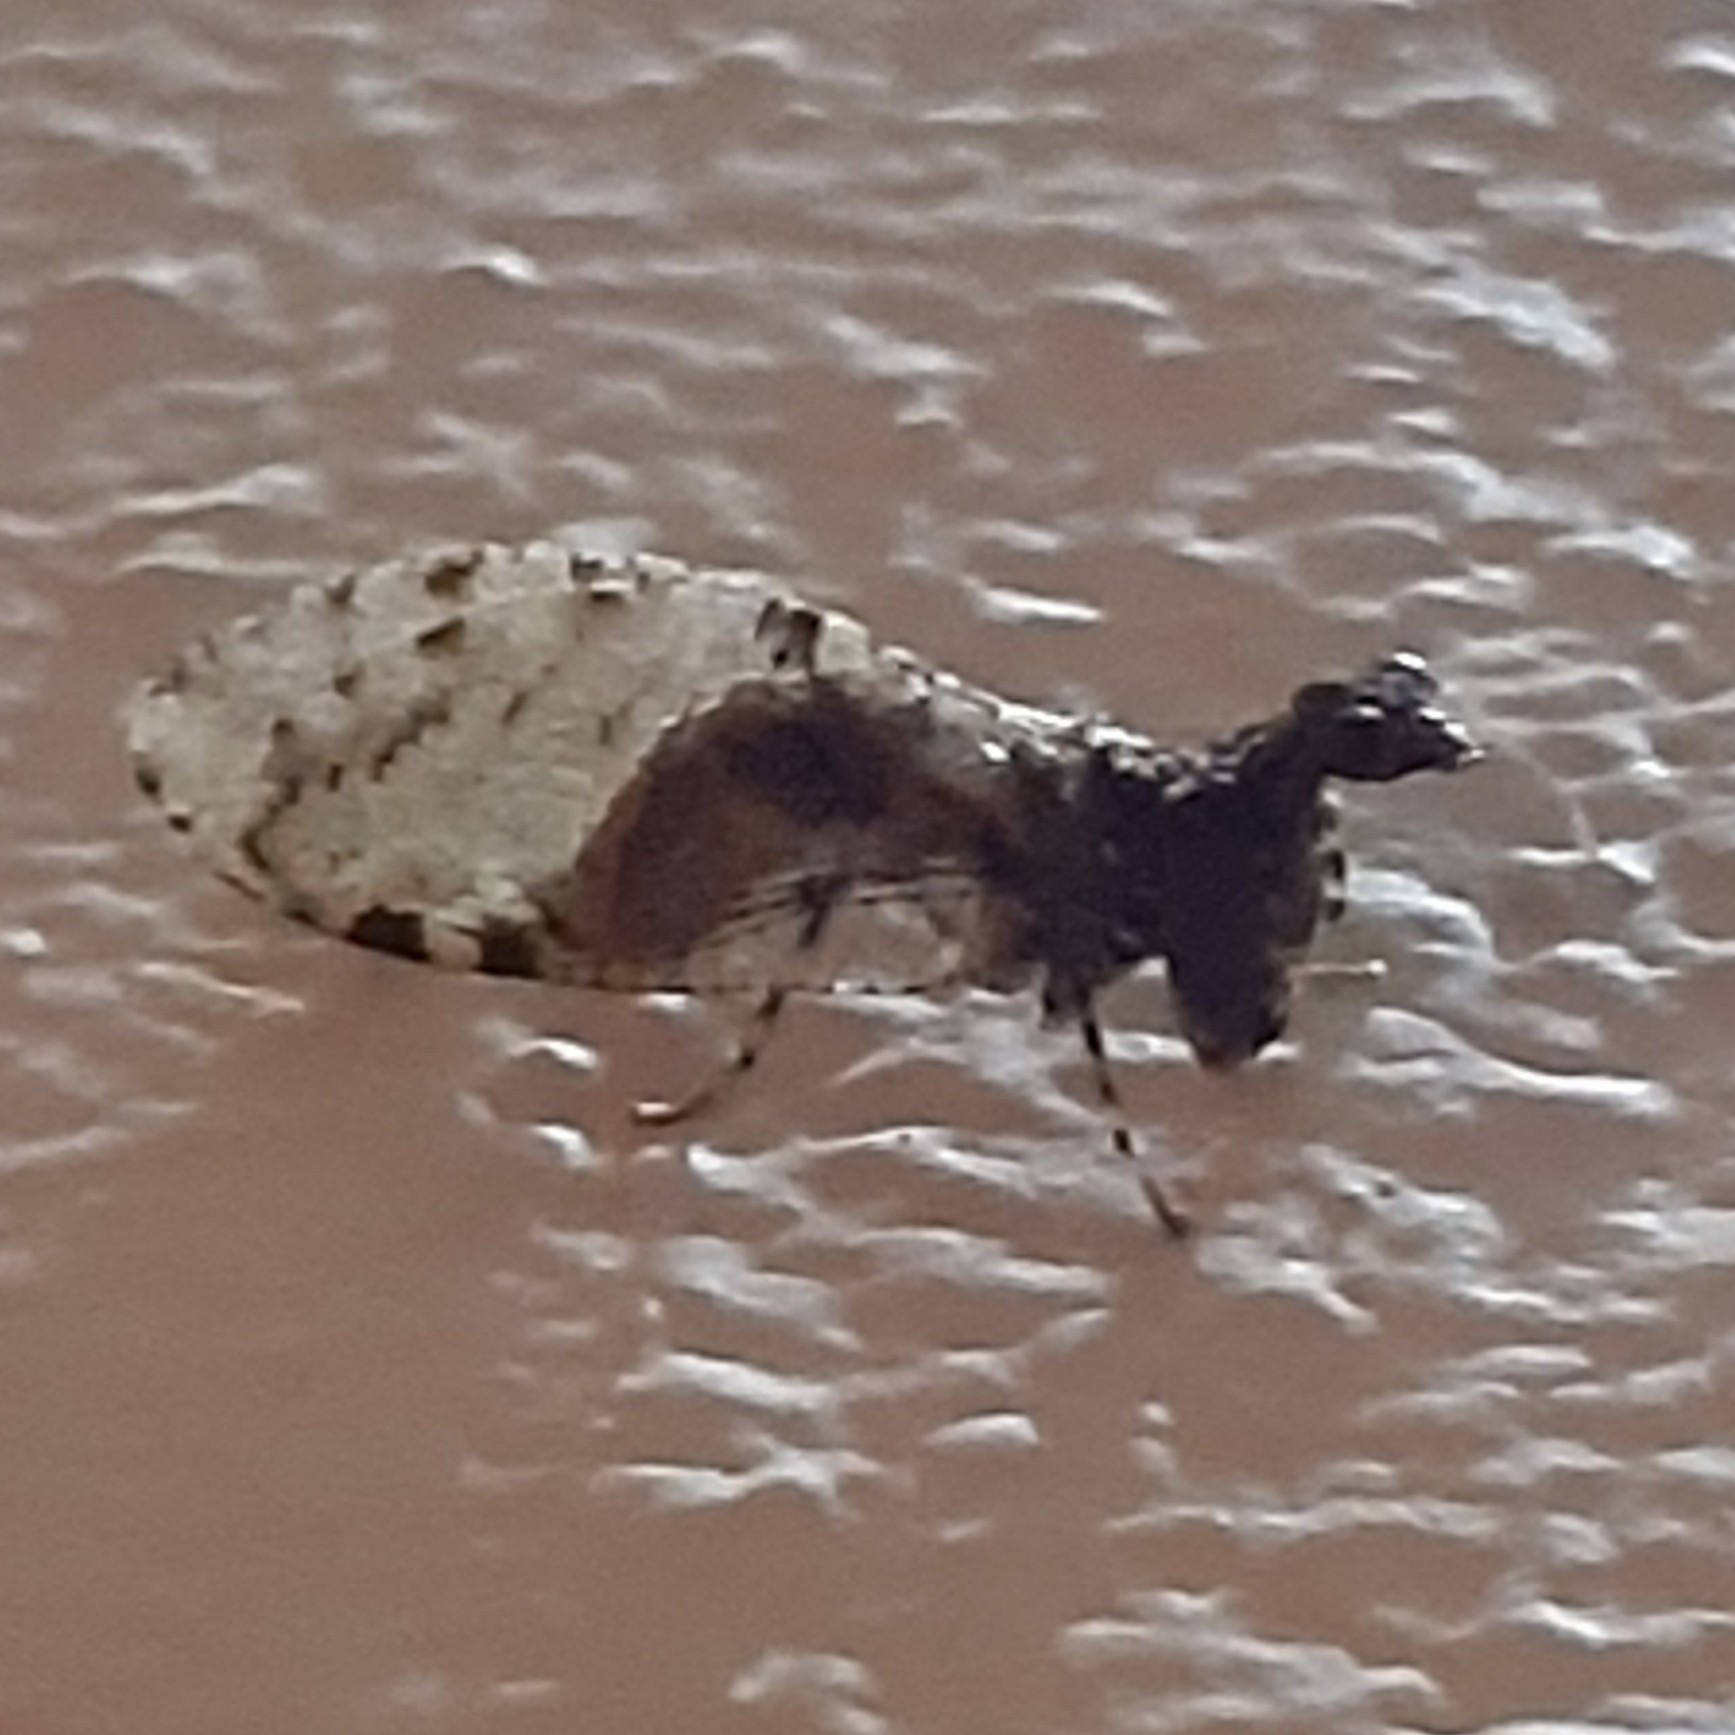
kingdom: Animalia
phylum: Arthropoda
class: Insecta
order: Neuroptera
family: Mantispidae
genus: Plega
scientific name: Plega hagenella
